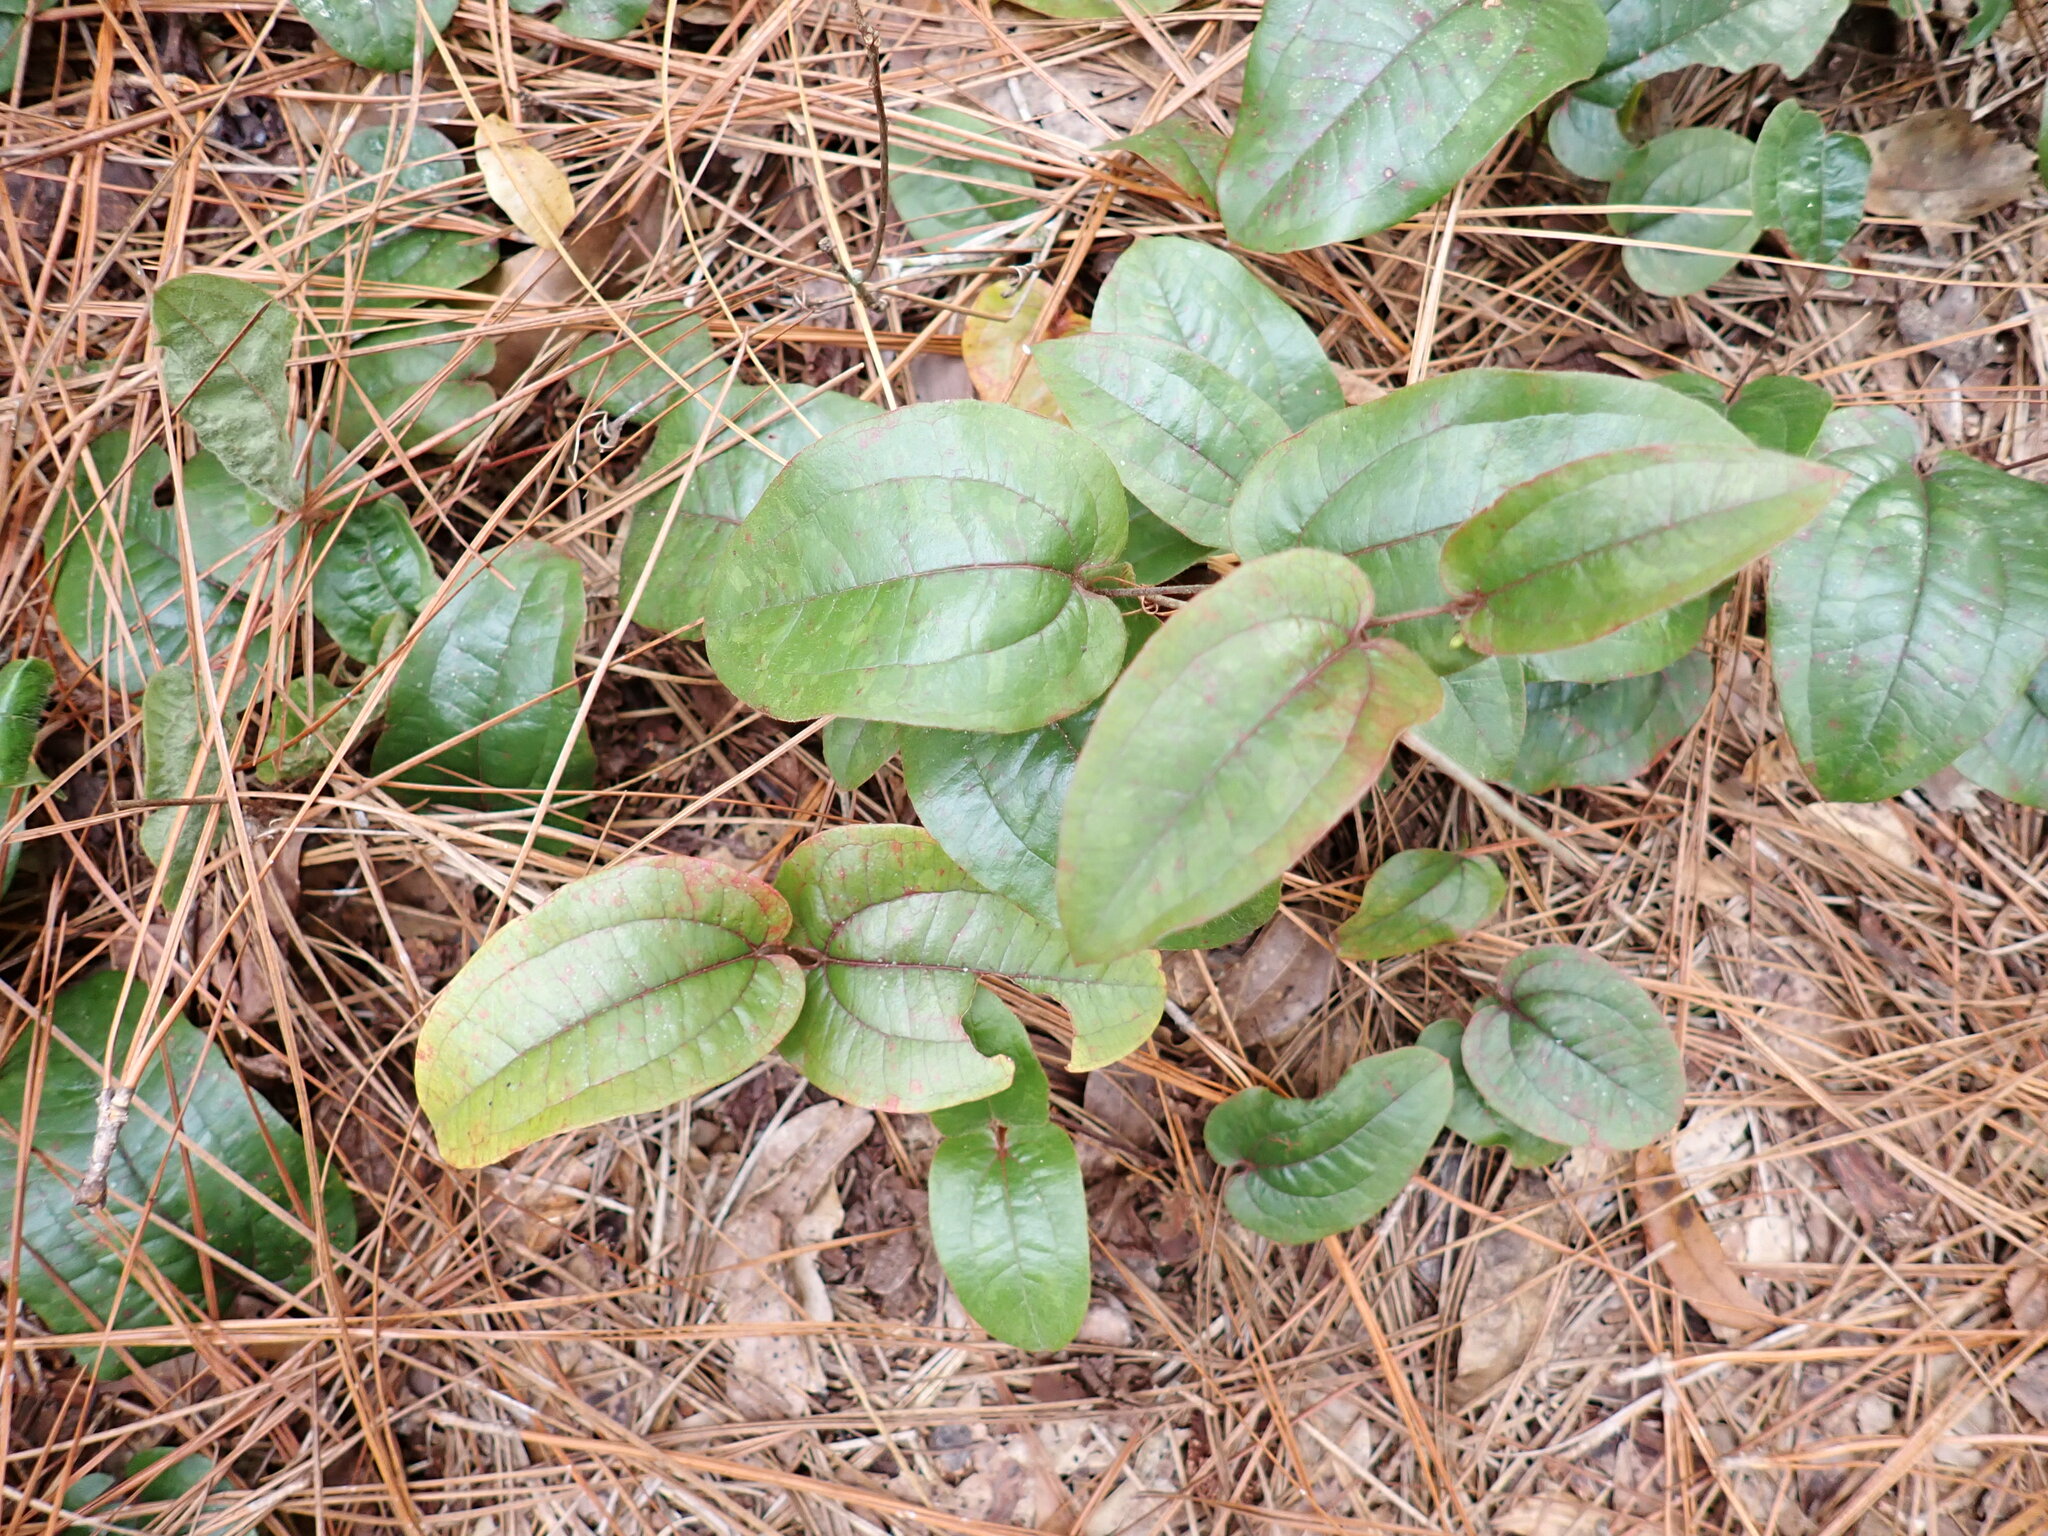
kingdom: Plantae
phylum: Tracheophyta
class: Liliopsida
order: Liliales
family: Smilacaceae
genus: Smilax
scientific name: Smilax pumila
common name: Sarsaparilla-vine
